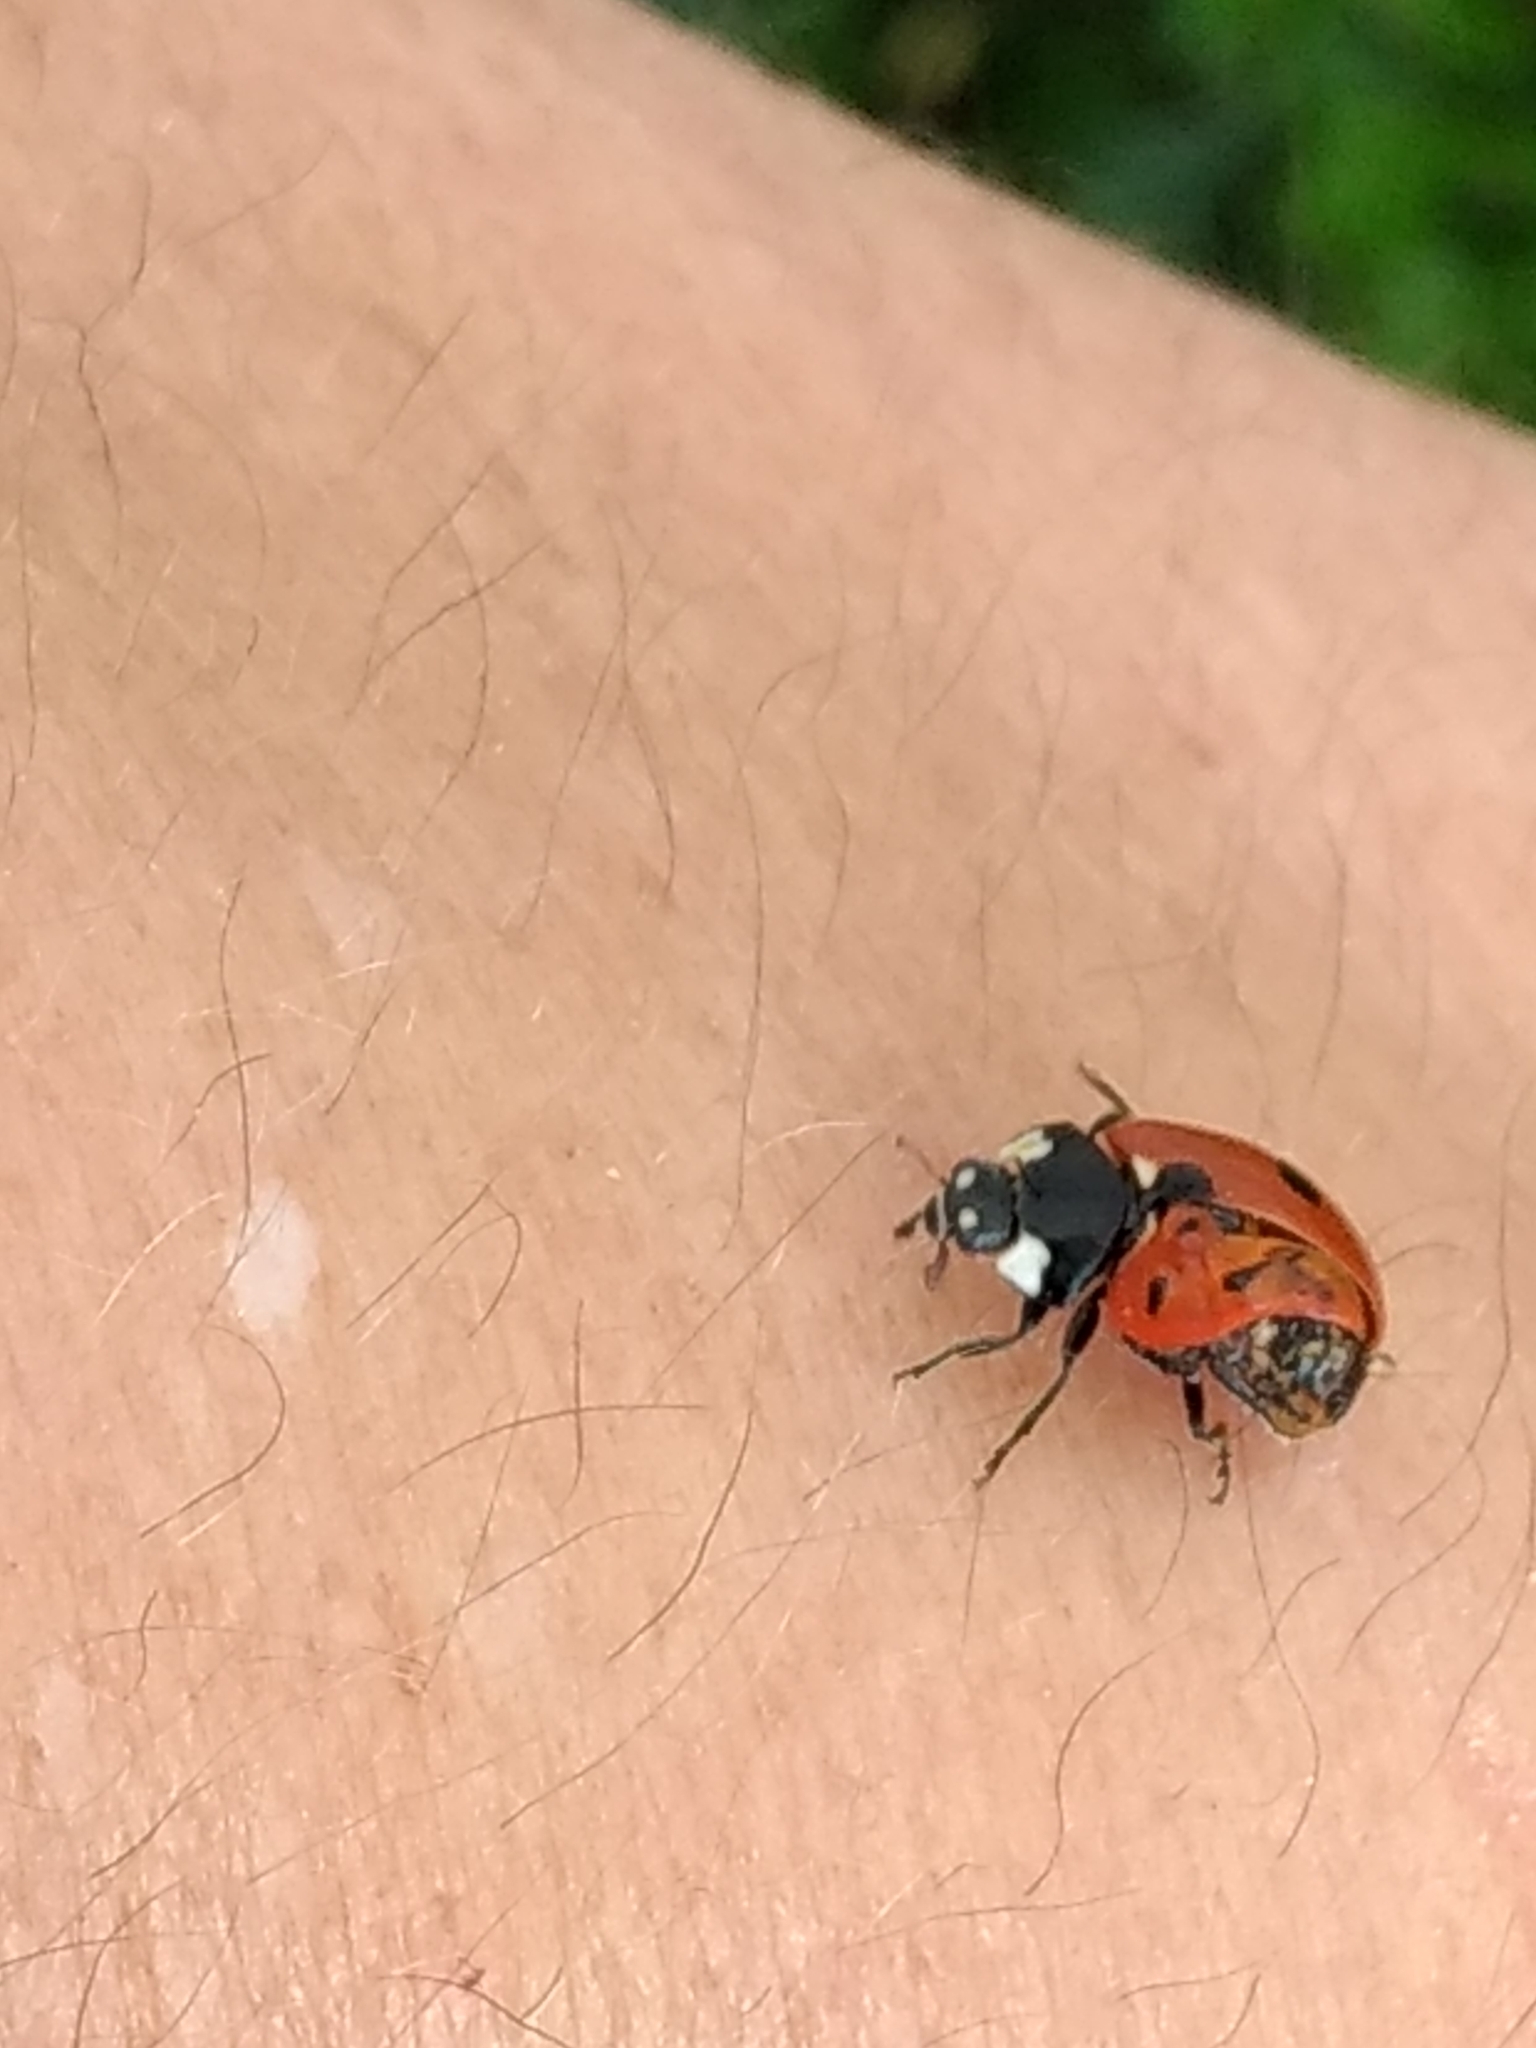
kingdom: Animalia
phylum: Arthropoda
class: Insecta
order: Coleoptera
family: Coccinellidae
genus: Coccinella
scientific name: Coccinella septempunctata
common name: Sevenspotted lady beetle
